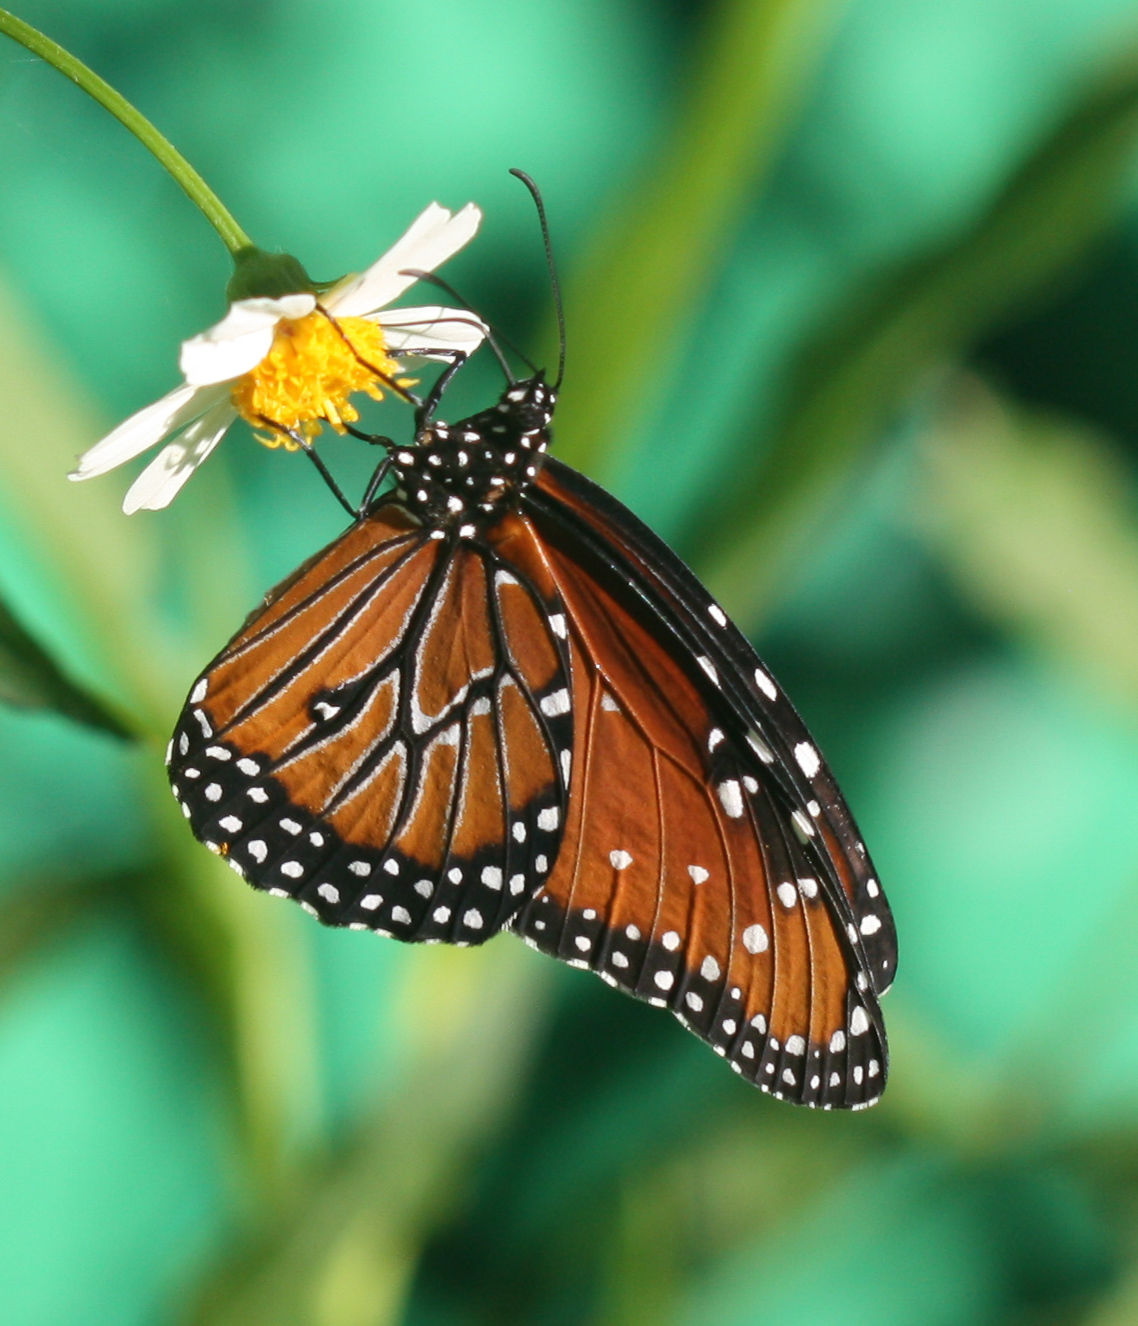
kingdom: Animalia
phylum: Arthropoda
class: Insecta
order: Lepidoptera
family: Nymphalidae
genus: Danaus
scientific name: Danaus gilippus
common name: Queen
